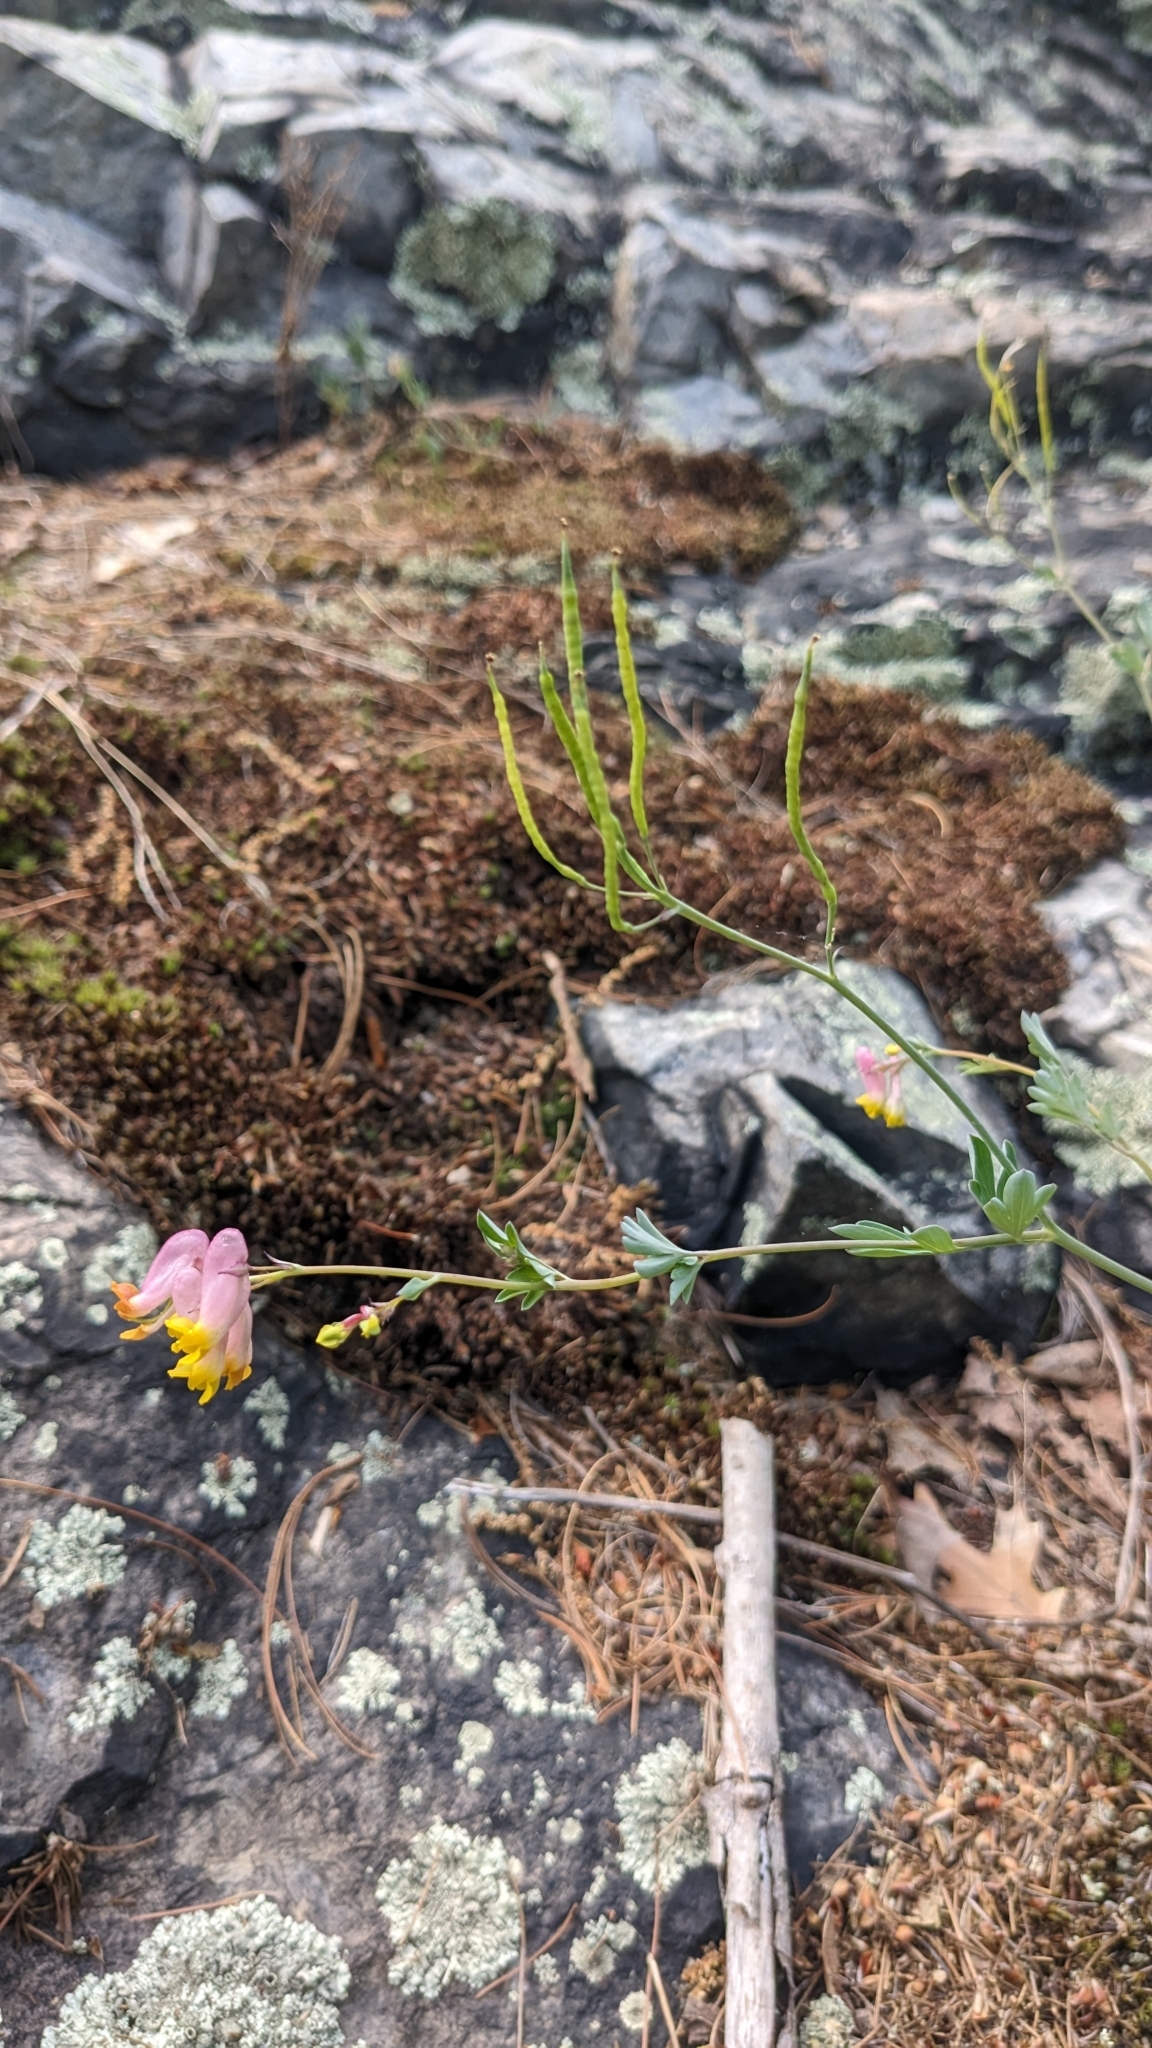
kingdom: Plantae
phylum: Tracheophyta
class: Magnoliopsida
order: Ranunculales
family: Papaveraceae
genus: Capnoides
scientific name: Capnoides sempervirens
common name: Rock harlequin
